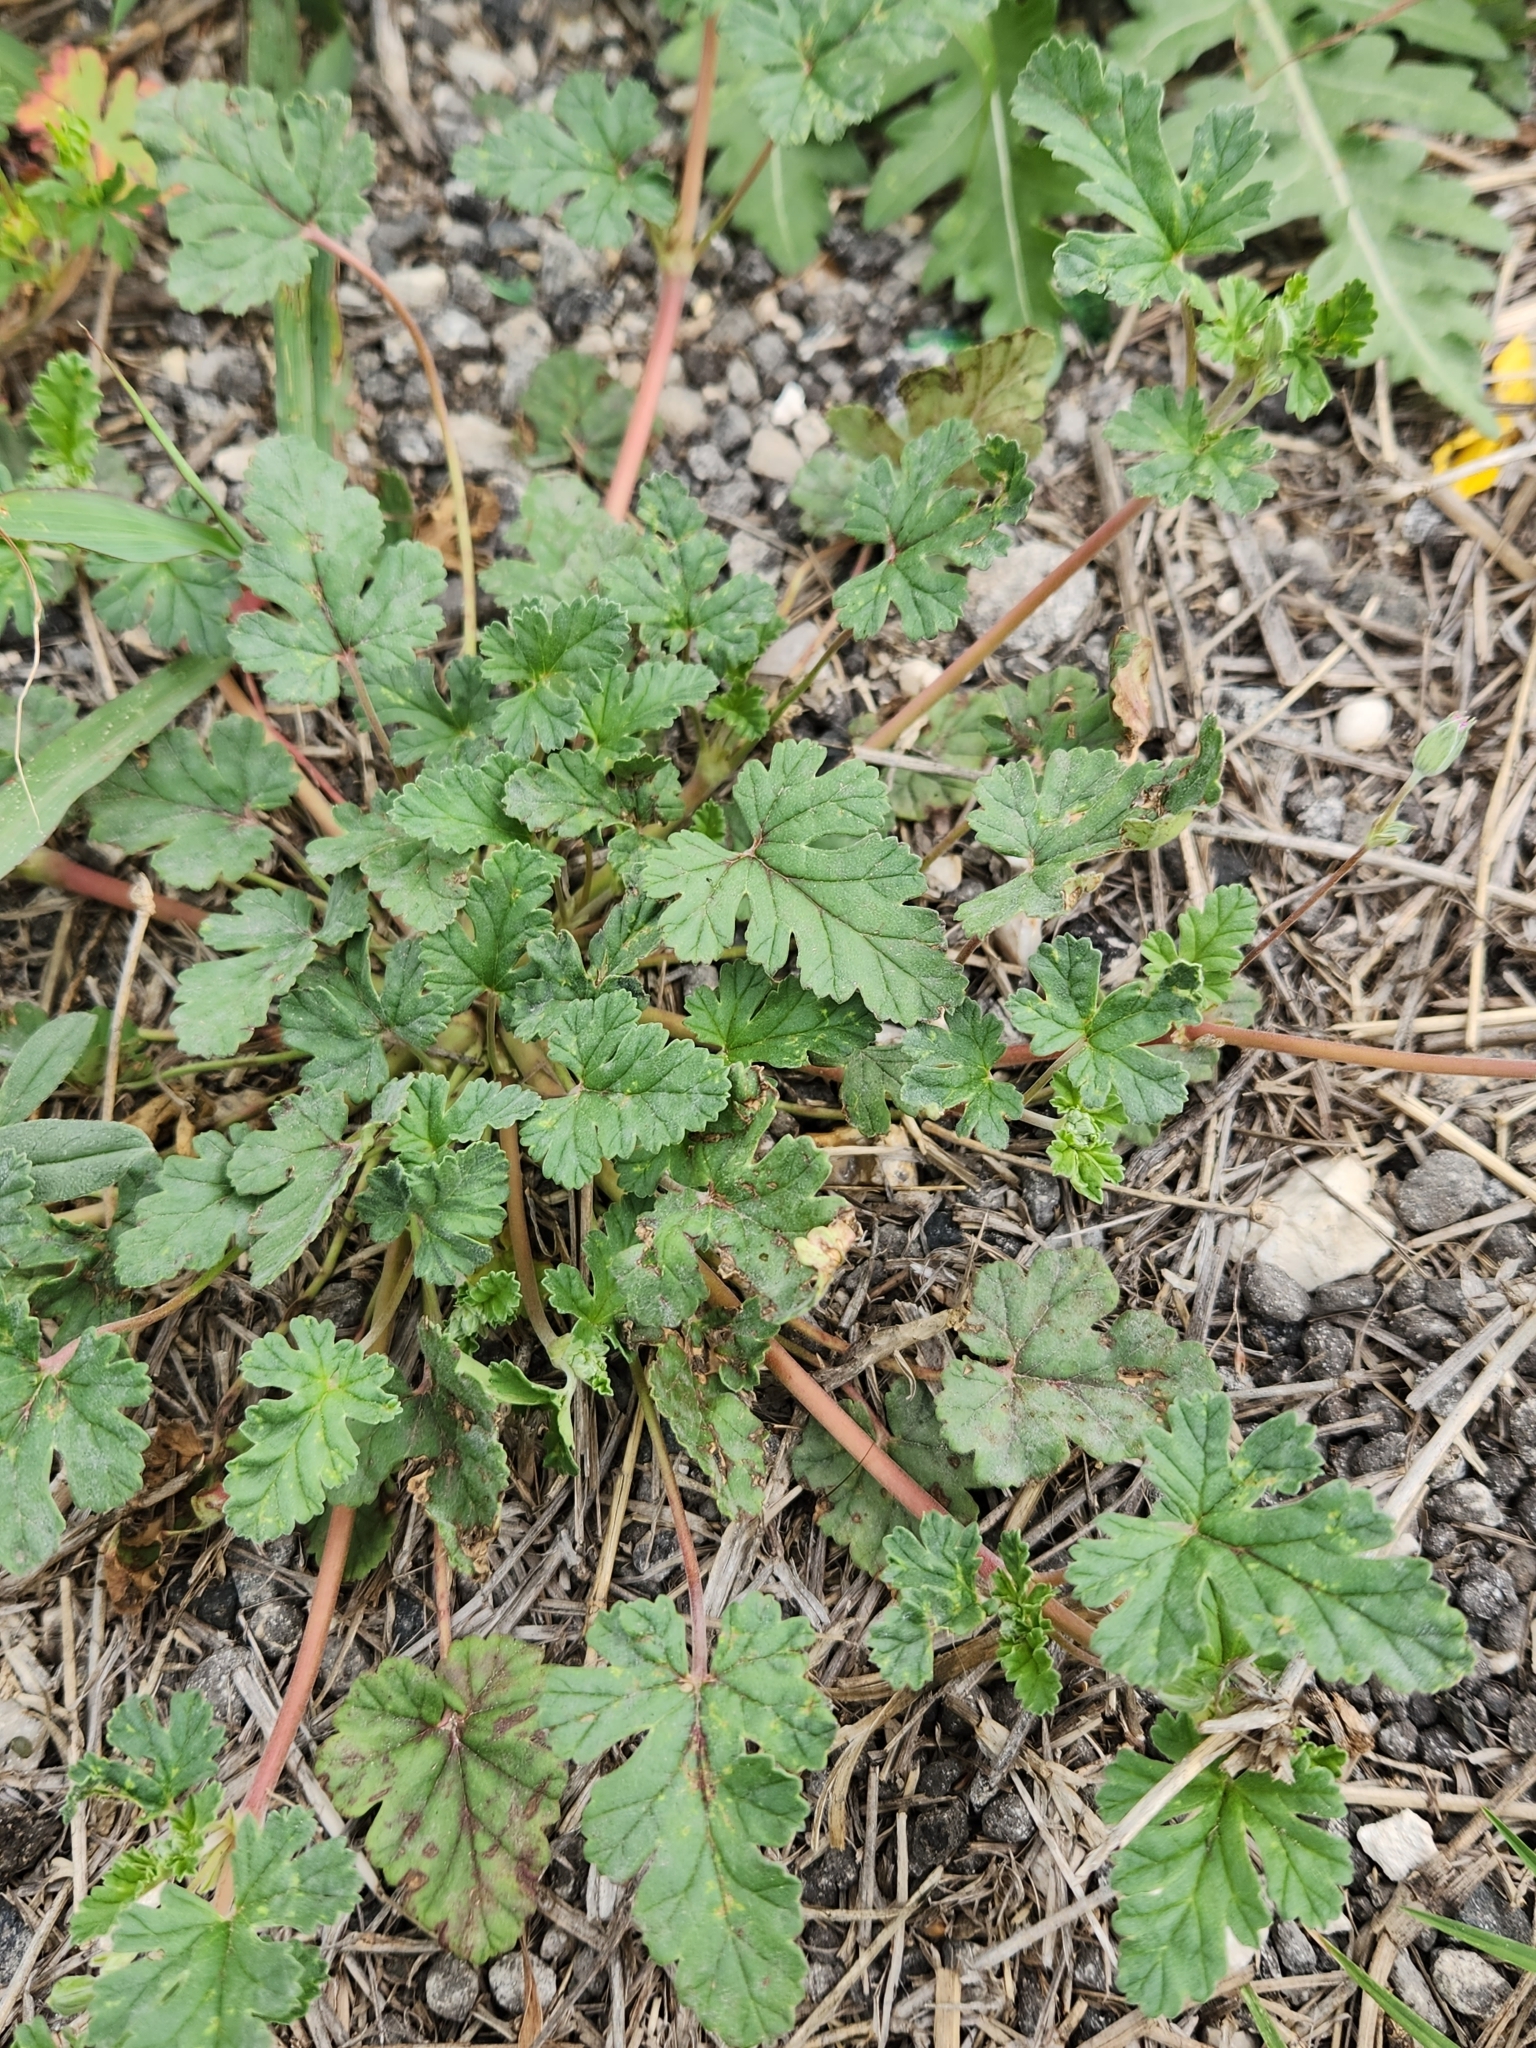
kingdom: Plantae
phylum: Tracheophyta
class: Magnoliopsida
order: Geraniales
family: Geraniaceae
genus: Erodium
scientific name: Erodium texanum
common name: Texas stork's-bill
